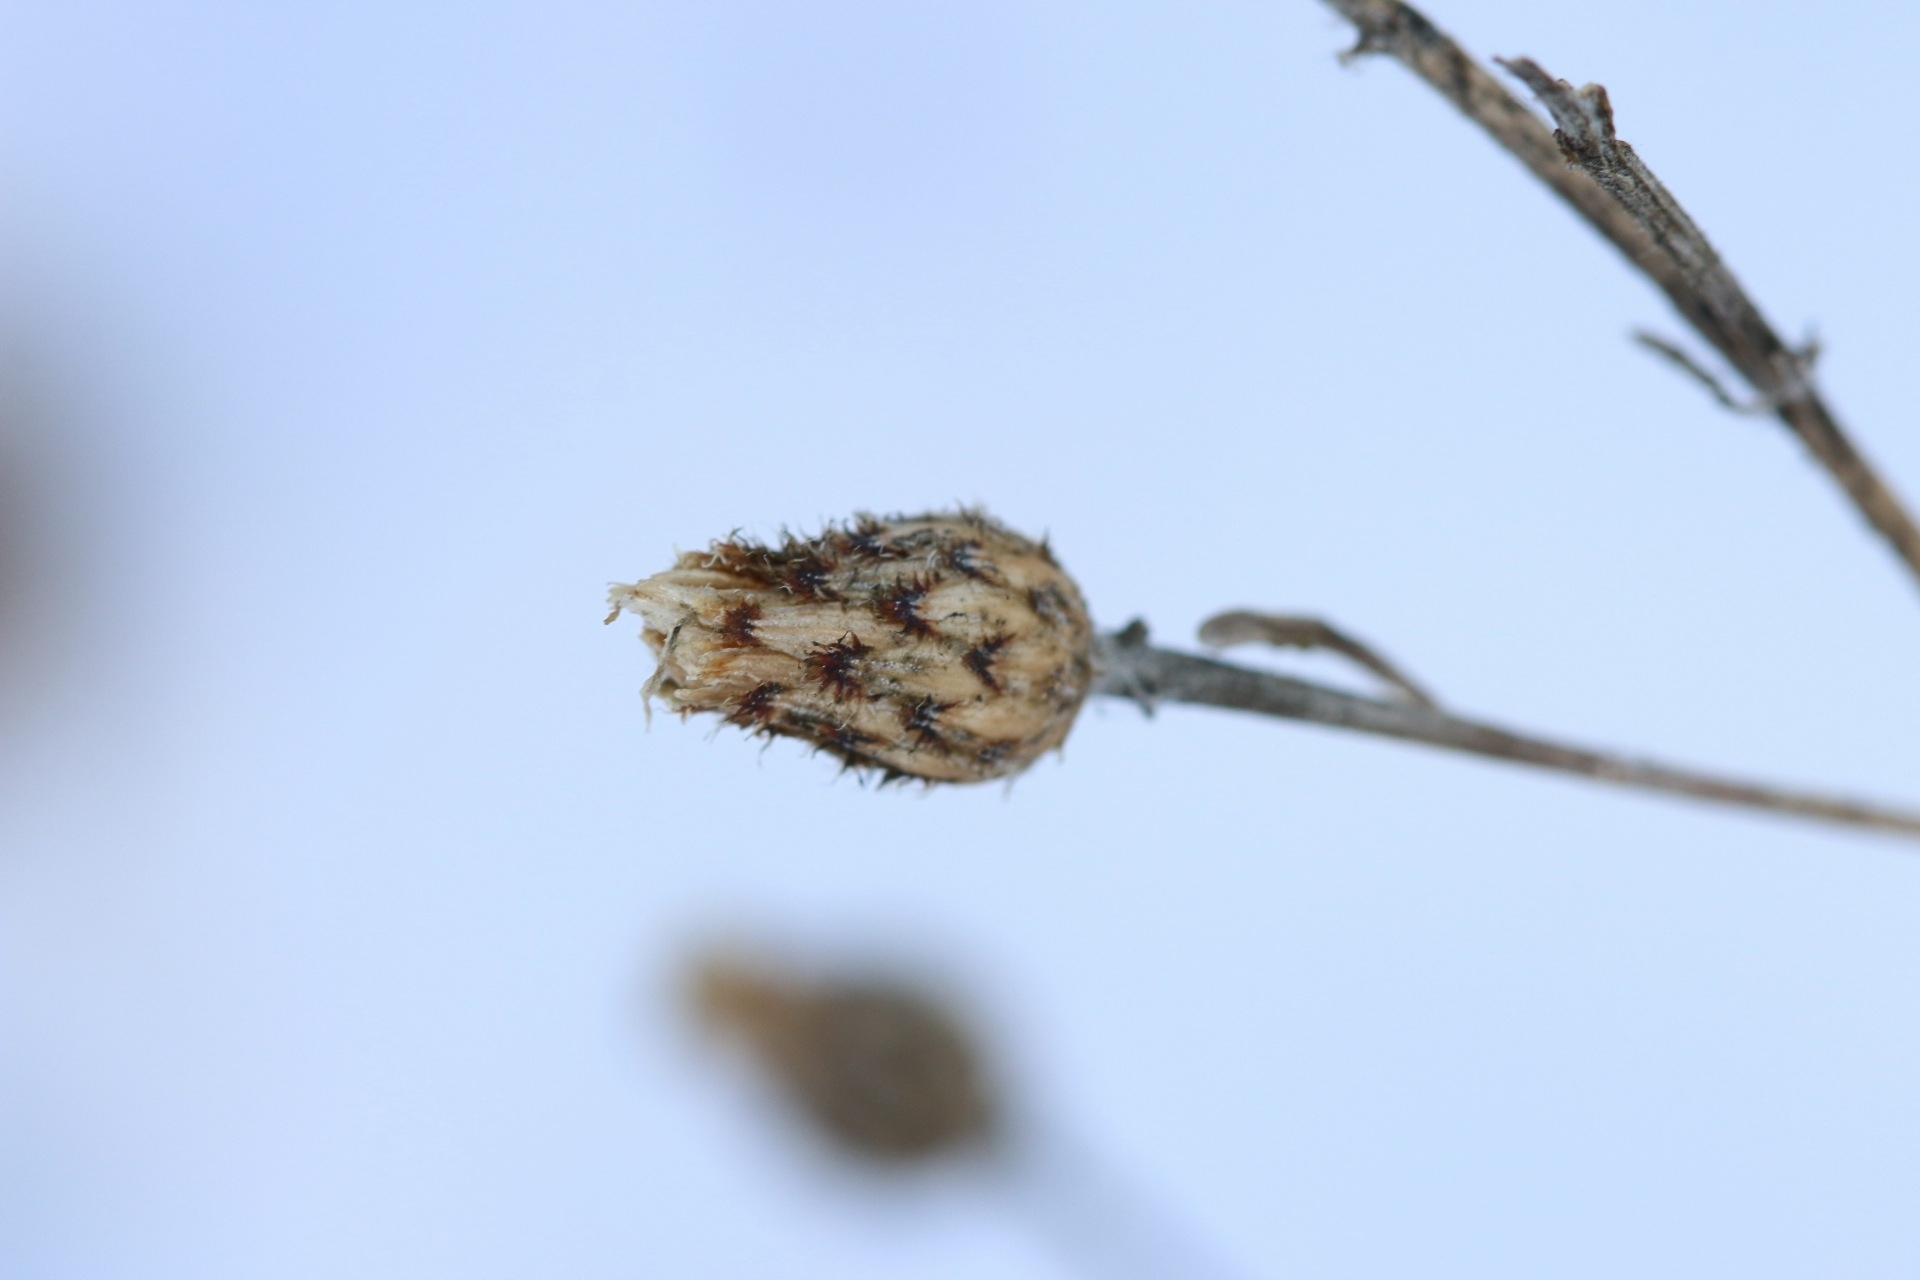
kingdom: Plantae
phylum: Tracheophyta
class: Magnoliopsida
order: Asterales
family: Asteraceae
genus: Centaurea
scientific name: Centaurea stoebe
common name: Spotted knapweed
